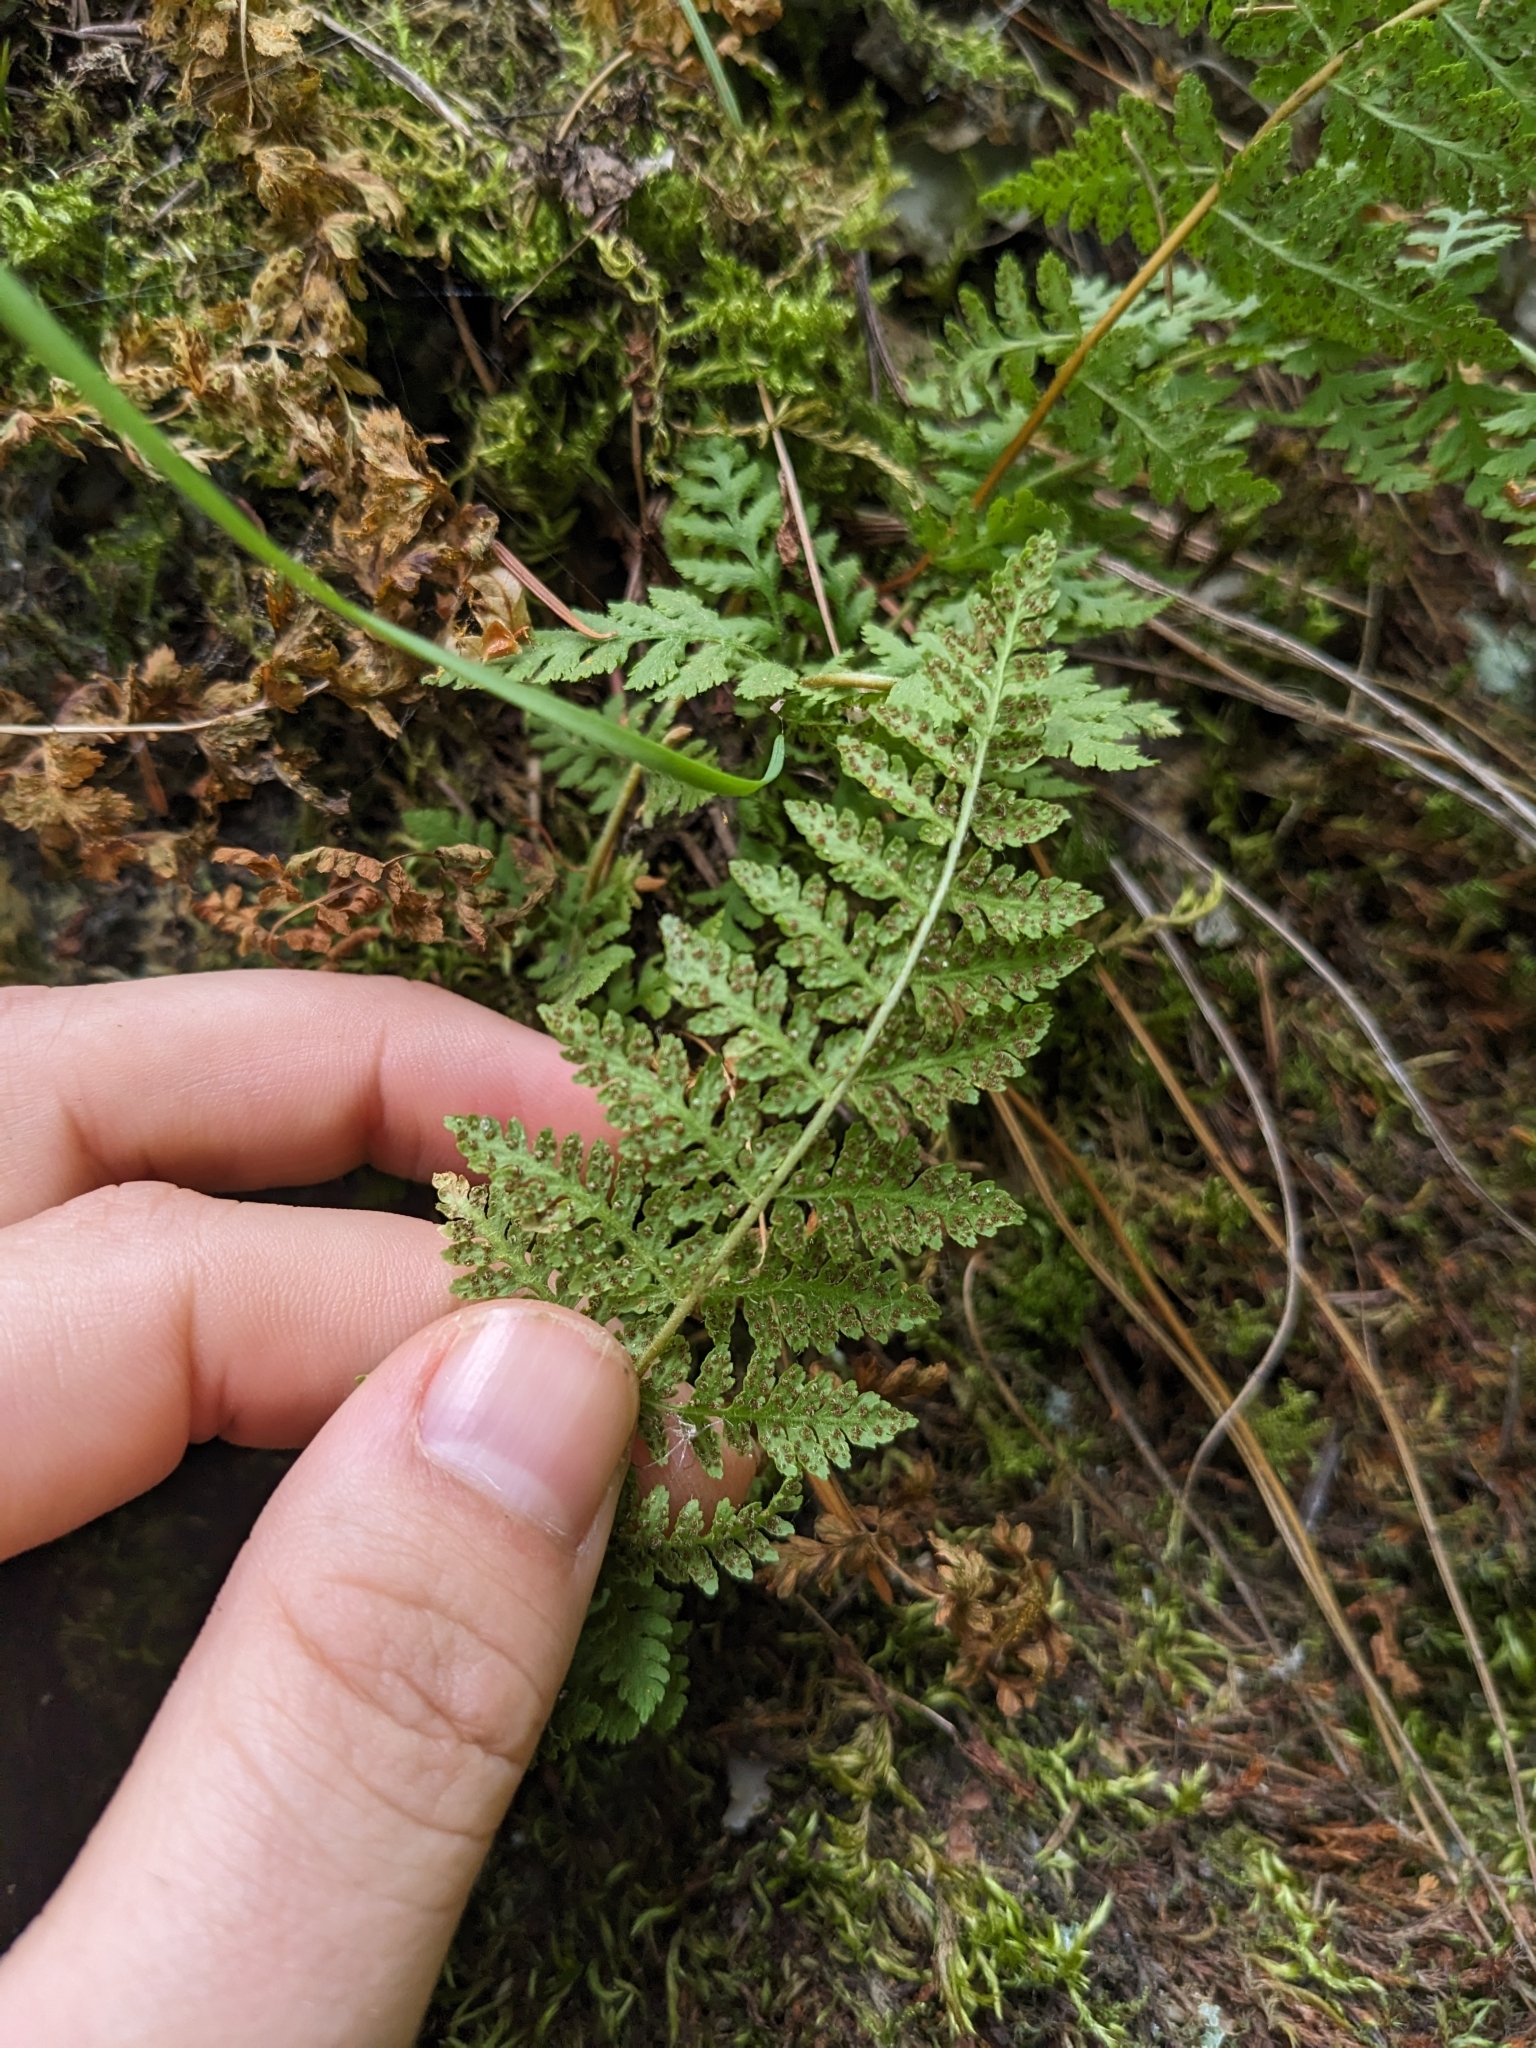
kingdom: Plantae
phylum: Tracheophyta
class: Polypodiopsida
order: Polypodiales
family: Woodsiaceae
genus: Physematium
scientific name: Physematium scopulinum
